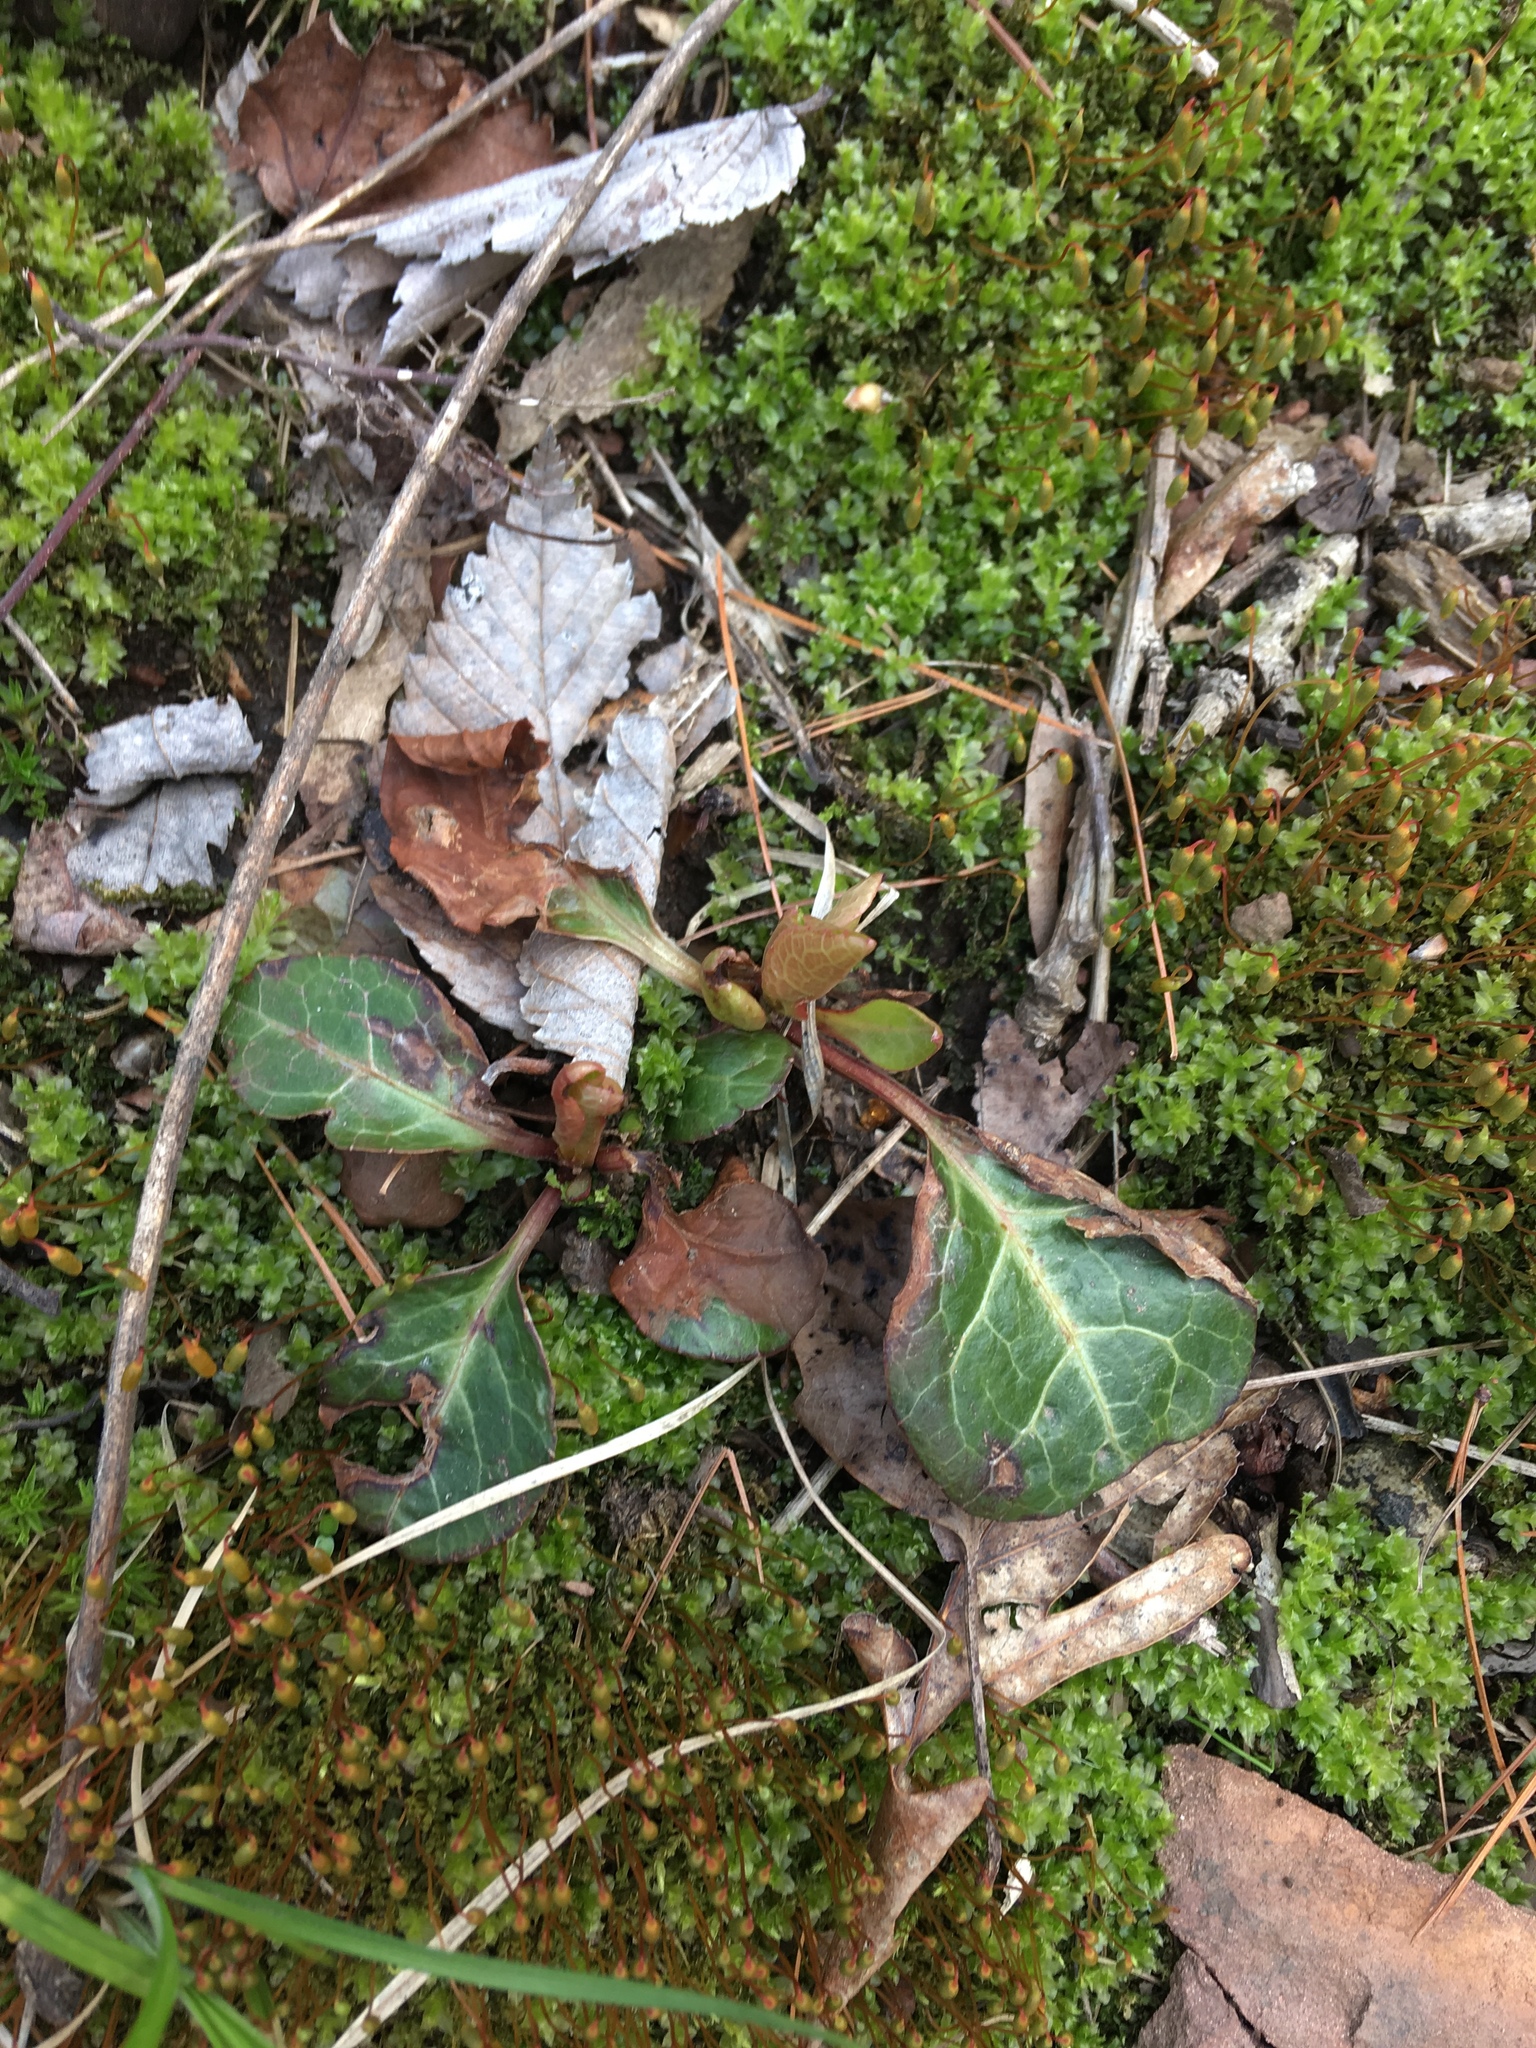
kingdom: Plantae
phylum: Tracheophyta
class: Magnoliopsida
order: Ericales
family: Ericaceae
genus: Pyrola
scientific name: Pyrola americana
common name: American wintergreen
